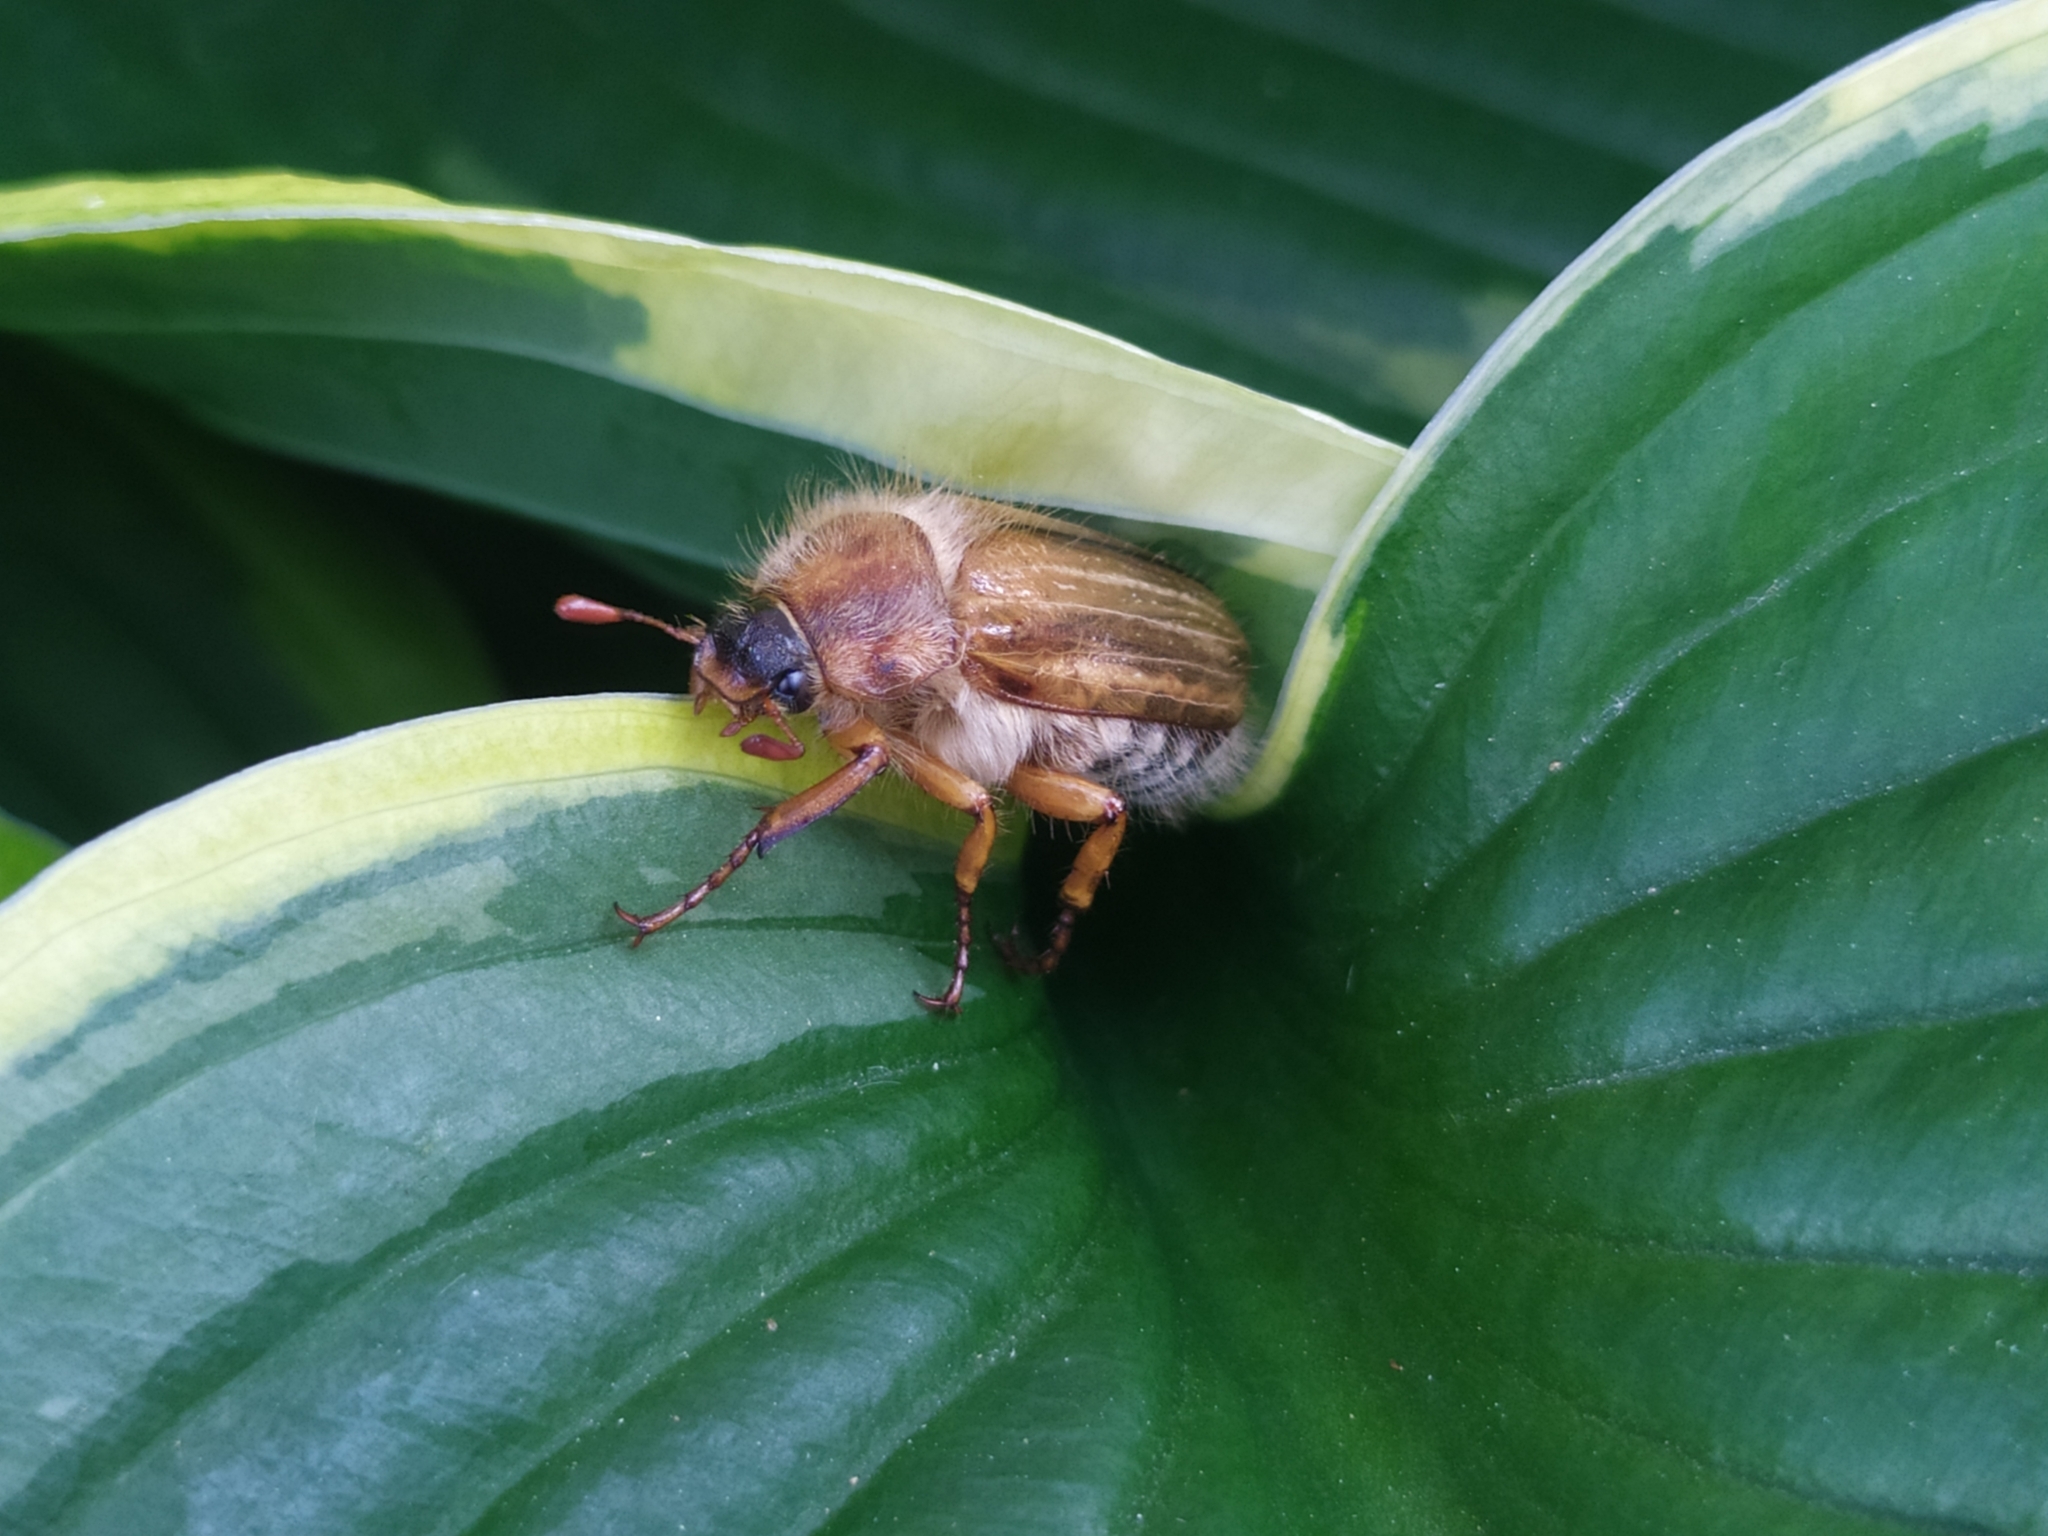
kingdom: Animalia
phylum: Arthropoda
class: Insecta
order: Coleoptera
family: Scarabaeidae
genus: Amphimallon
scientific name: Amphimallon solstitiale
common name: Summer chafer
